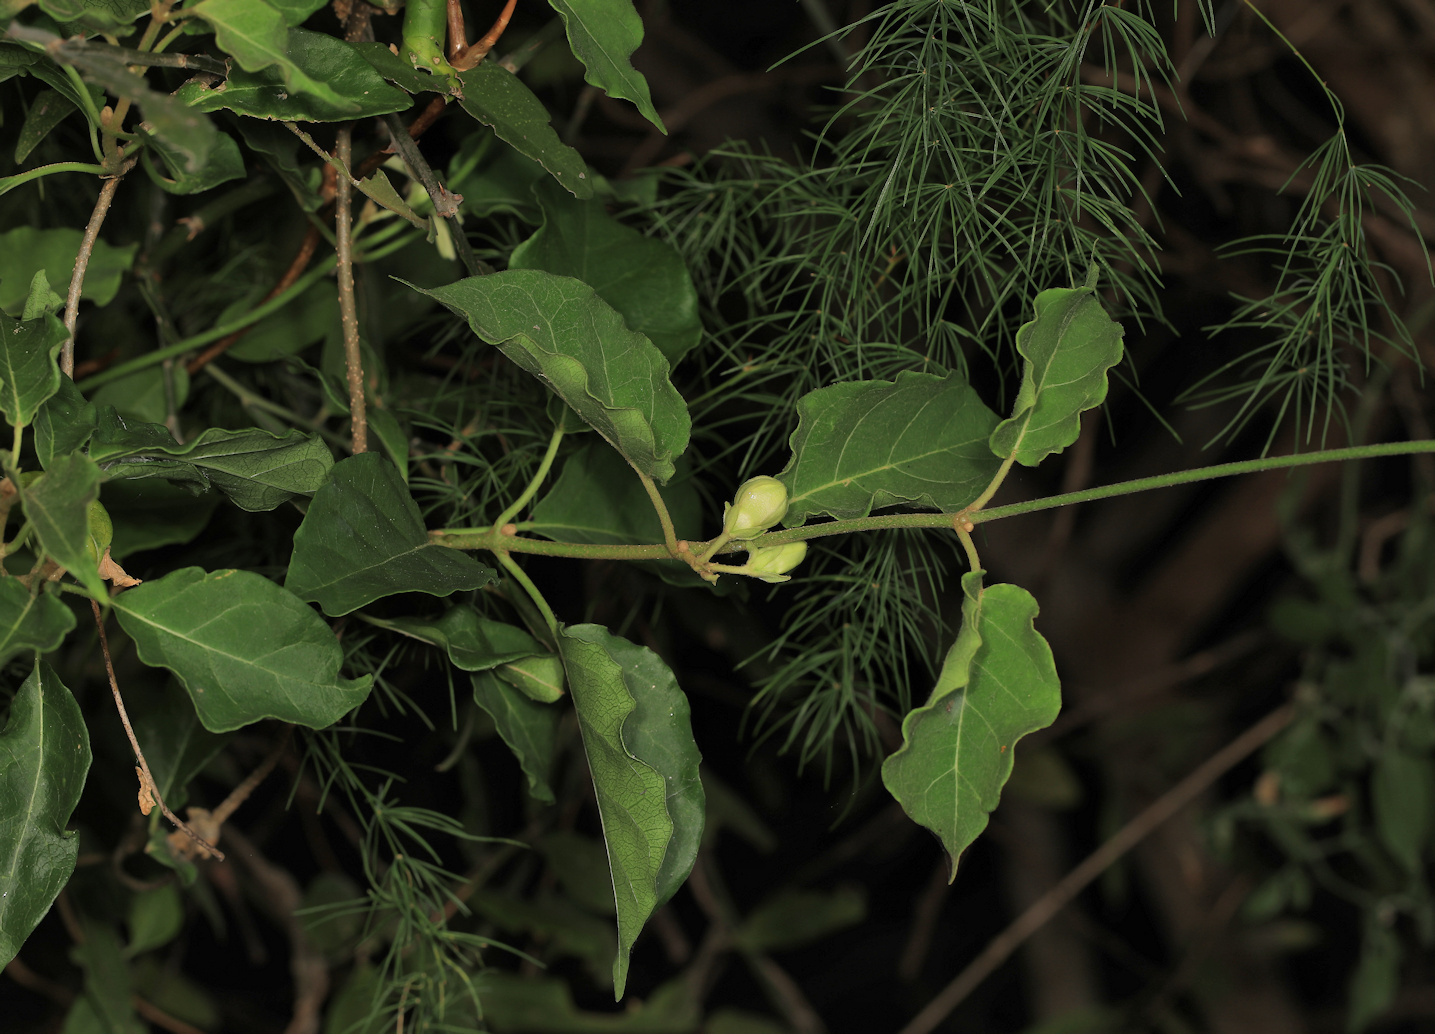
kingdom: Plantae
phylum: Tracheophyta
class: Magnoliopsida
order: Gentianales
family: Apocynaceae
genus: Stephanotis
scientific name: Stephanotis macrantha
